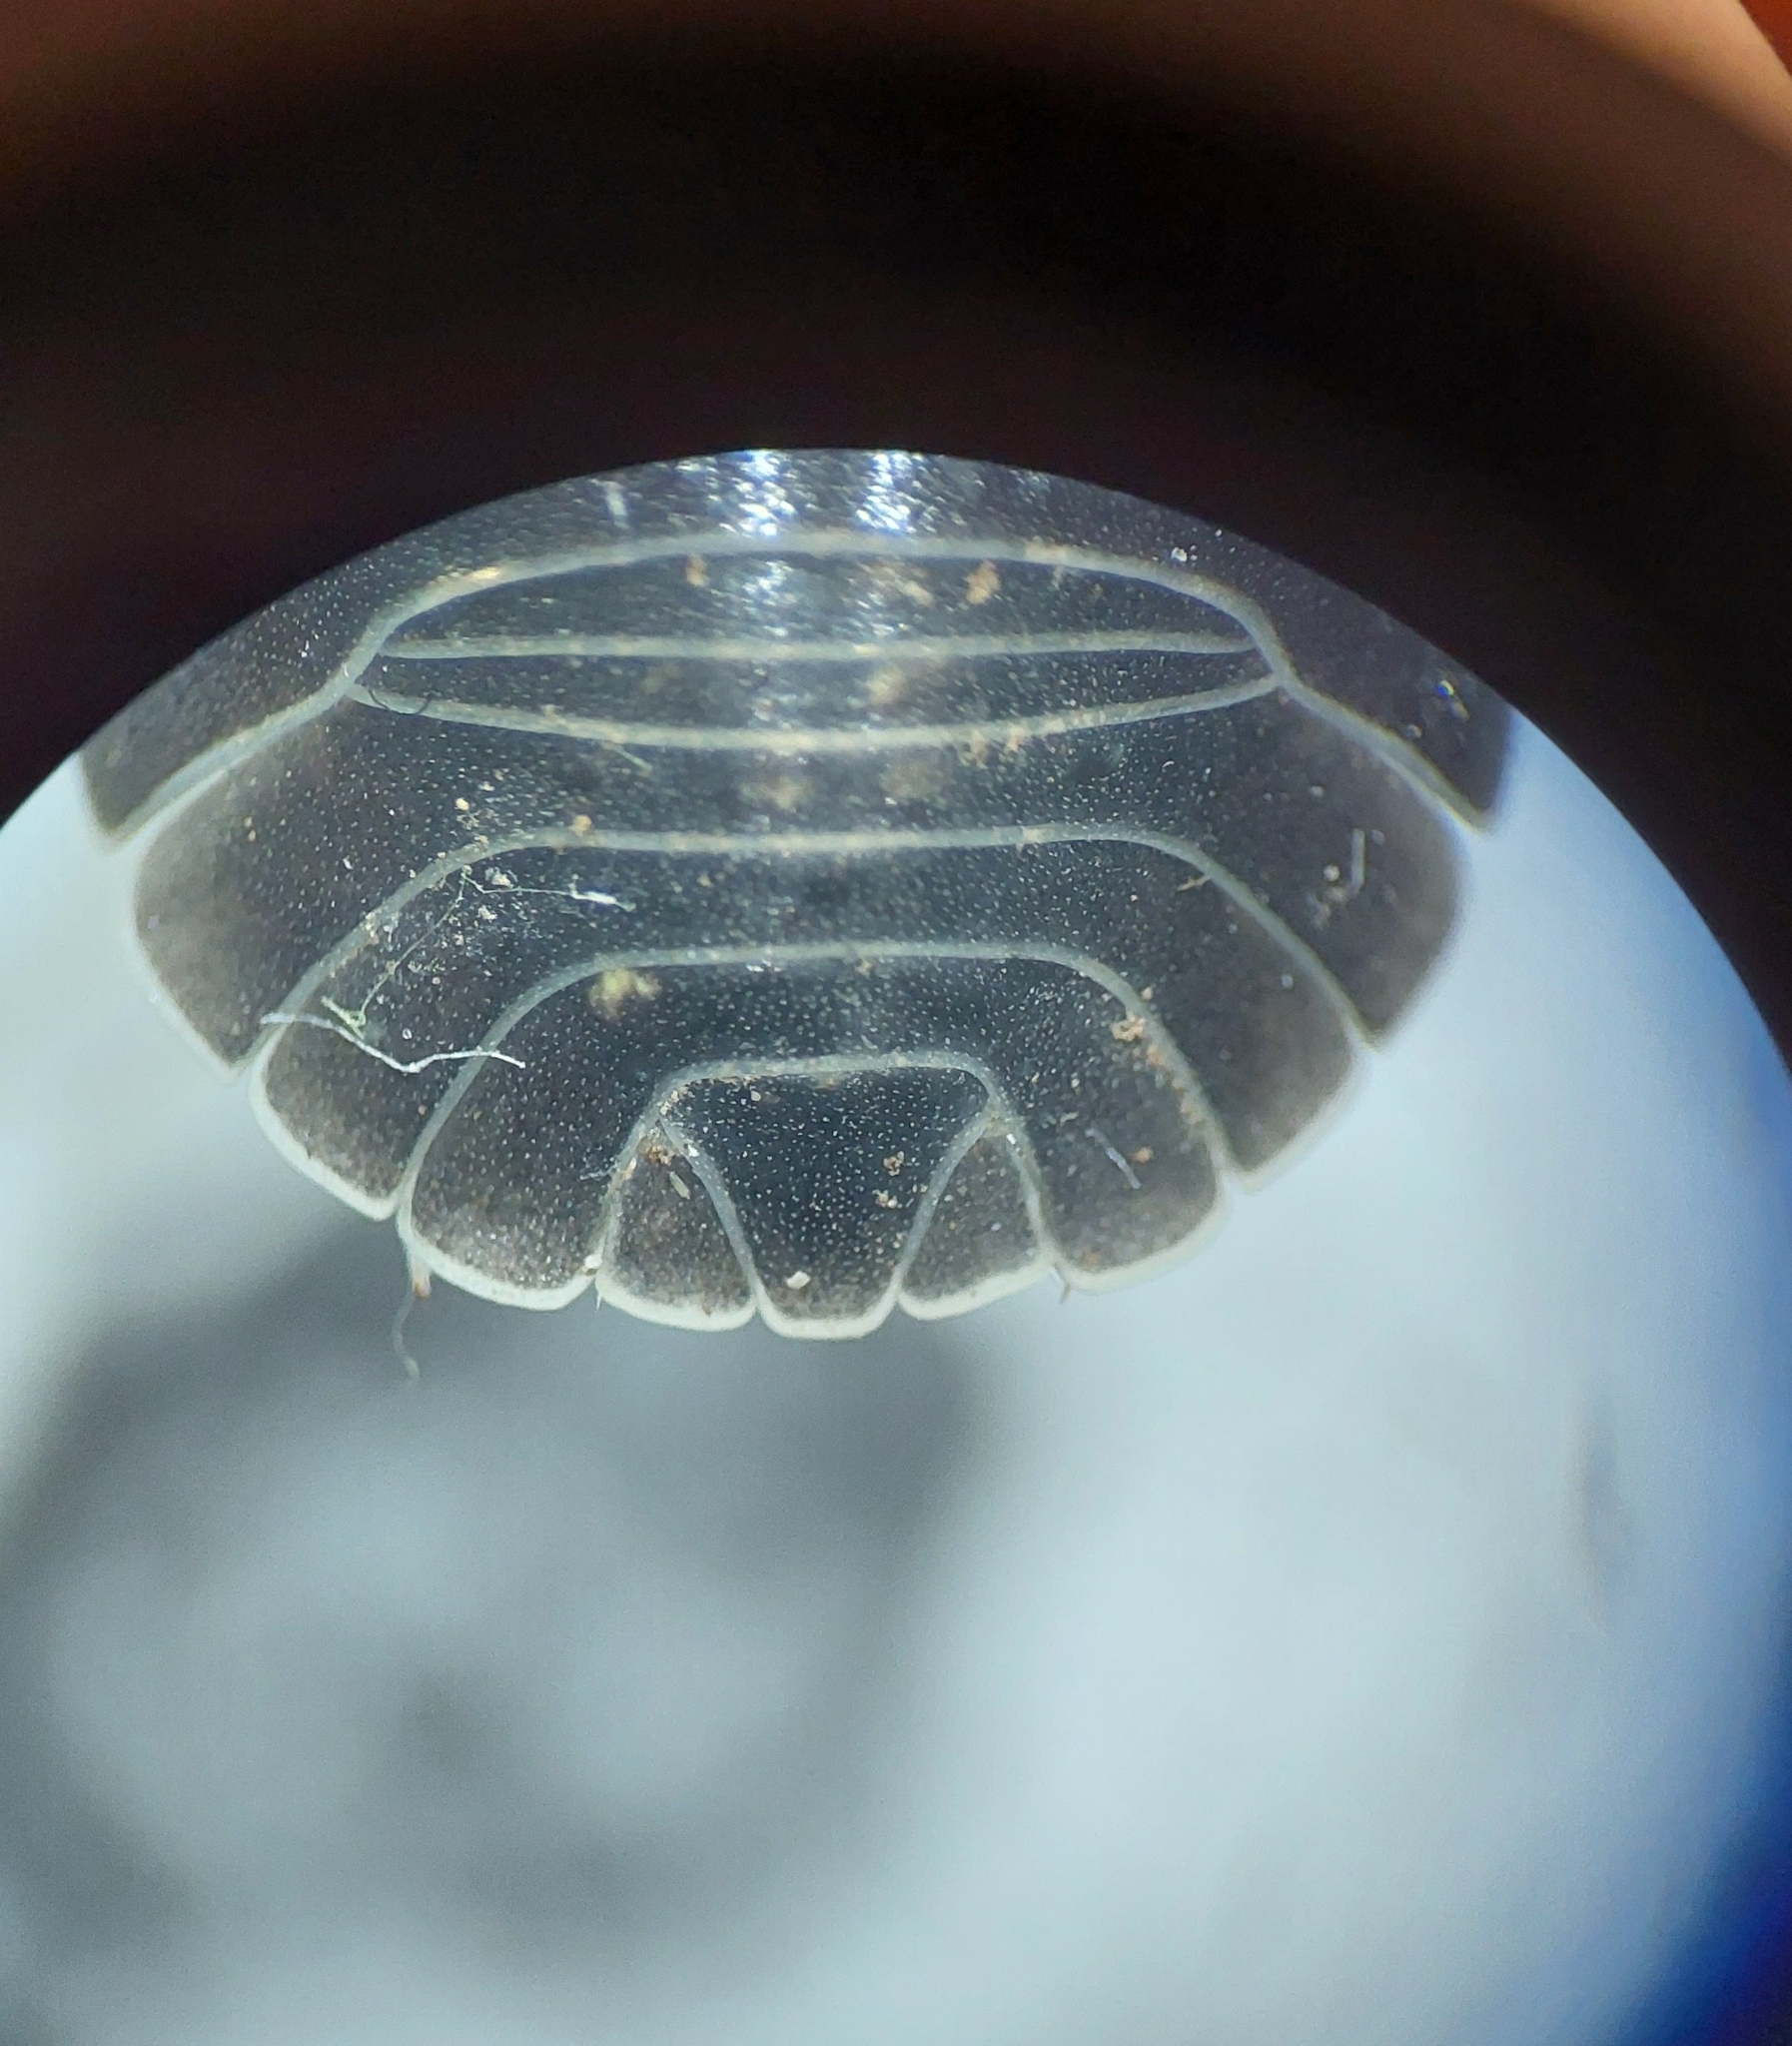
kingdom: Animalia
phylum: Arthropoda
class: Malacostraca
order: Isopoda
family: Armadillidiidae
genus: Armadillidium
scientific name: Armadillidium depressum
